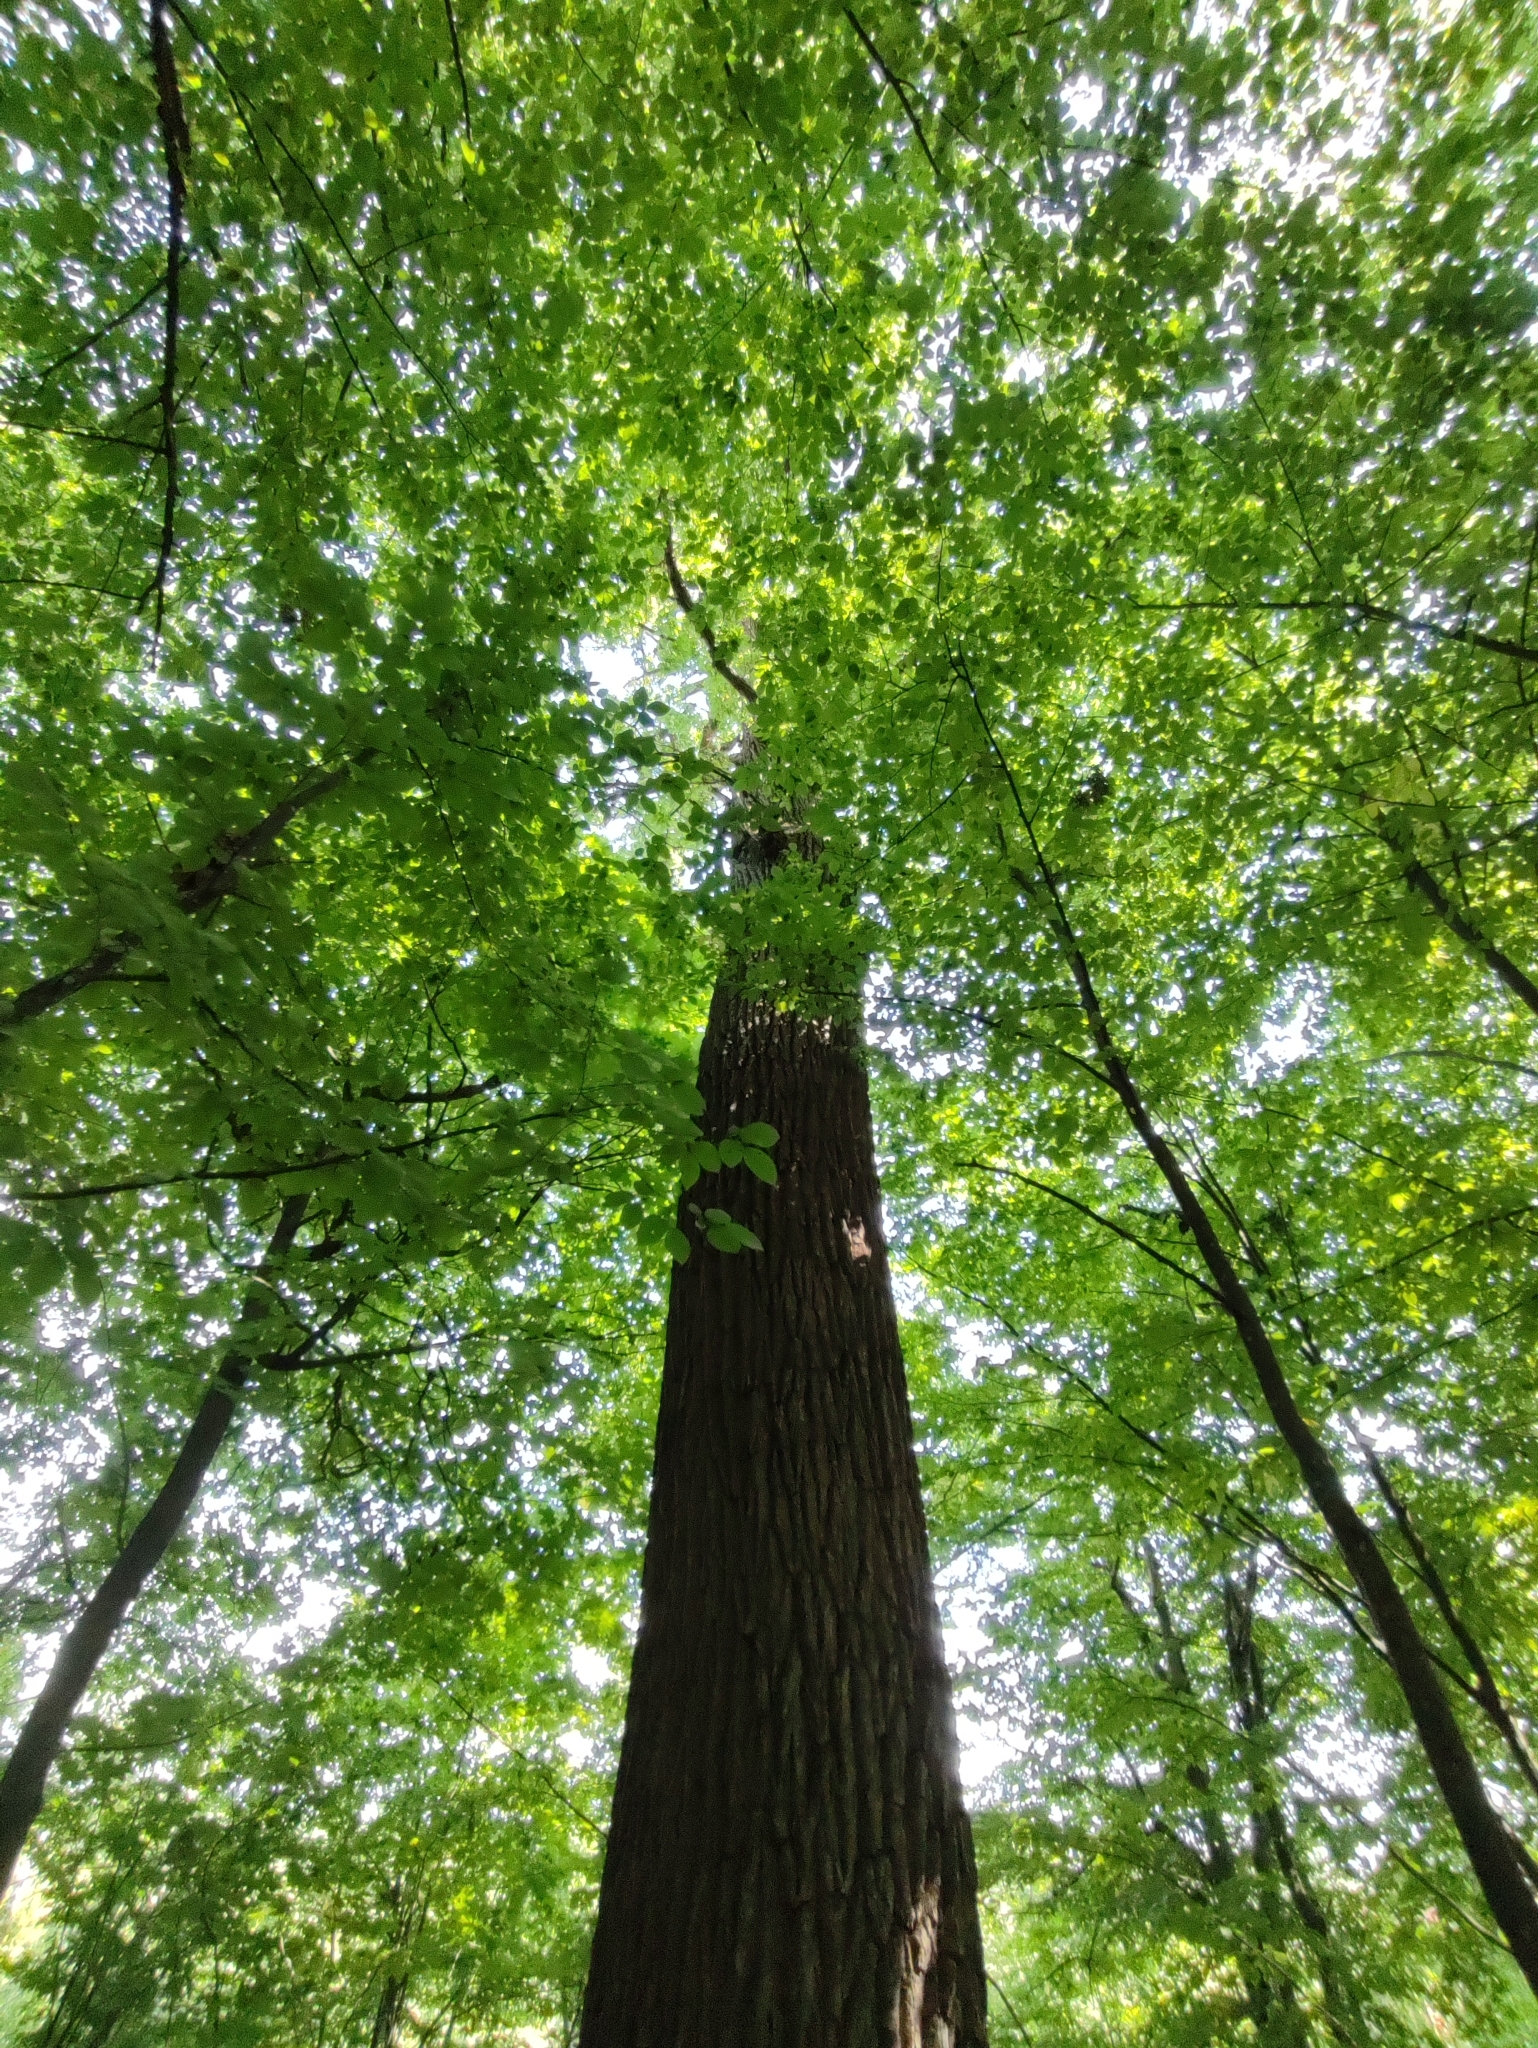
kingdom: Plantae
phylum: Tracheophyta
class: Magnoliopsida
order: Fagales
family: Fagaceae
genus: Quercus
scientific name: Quercus robur
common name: Pedunculate oak
